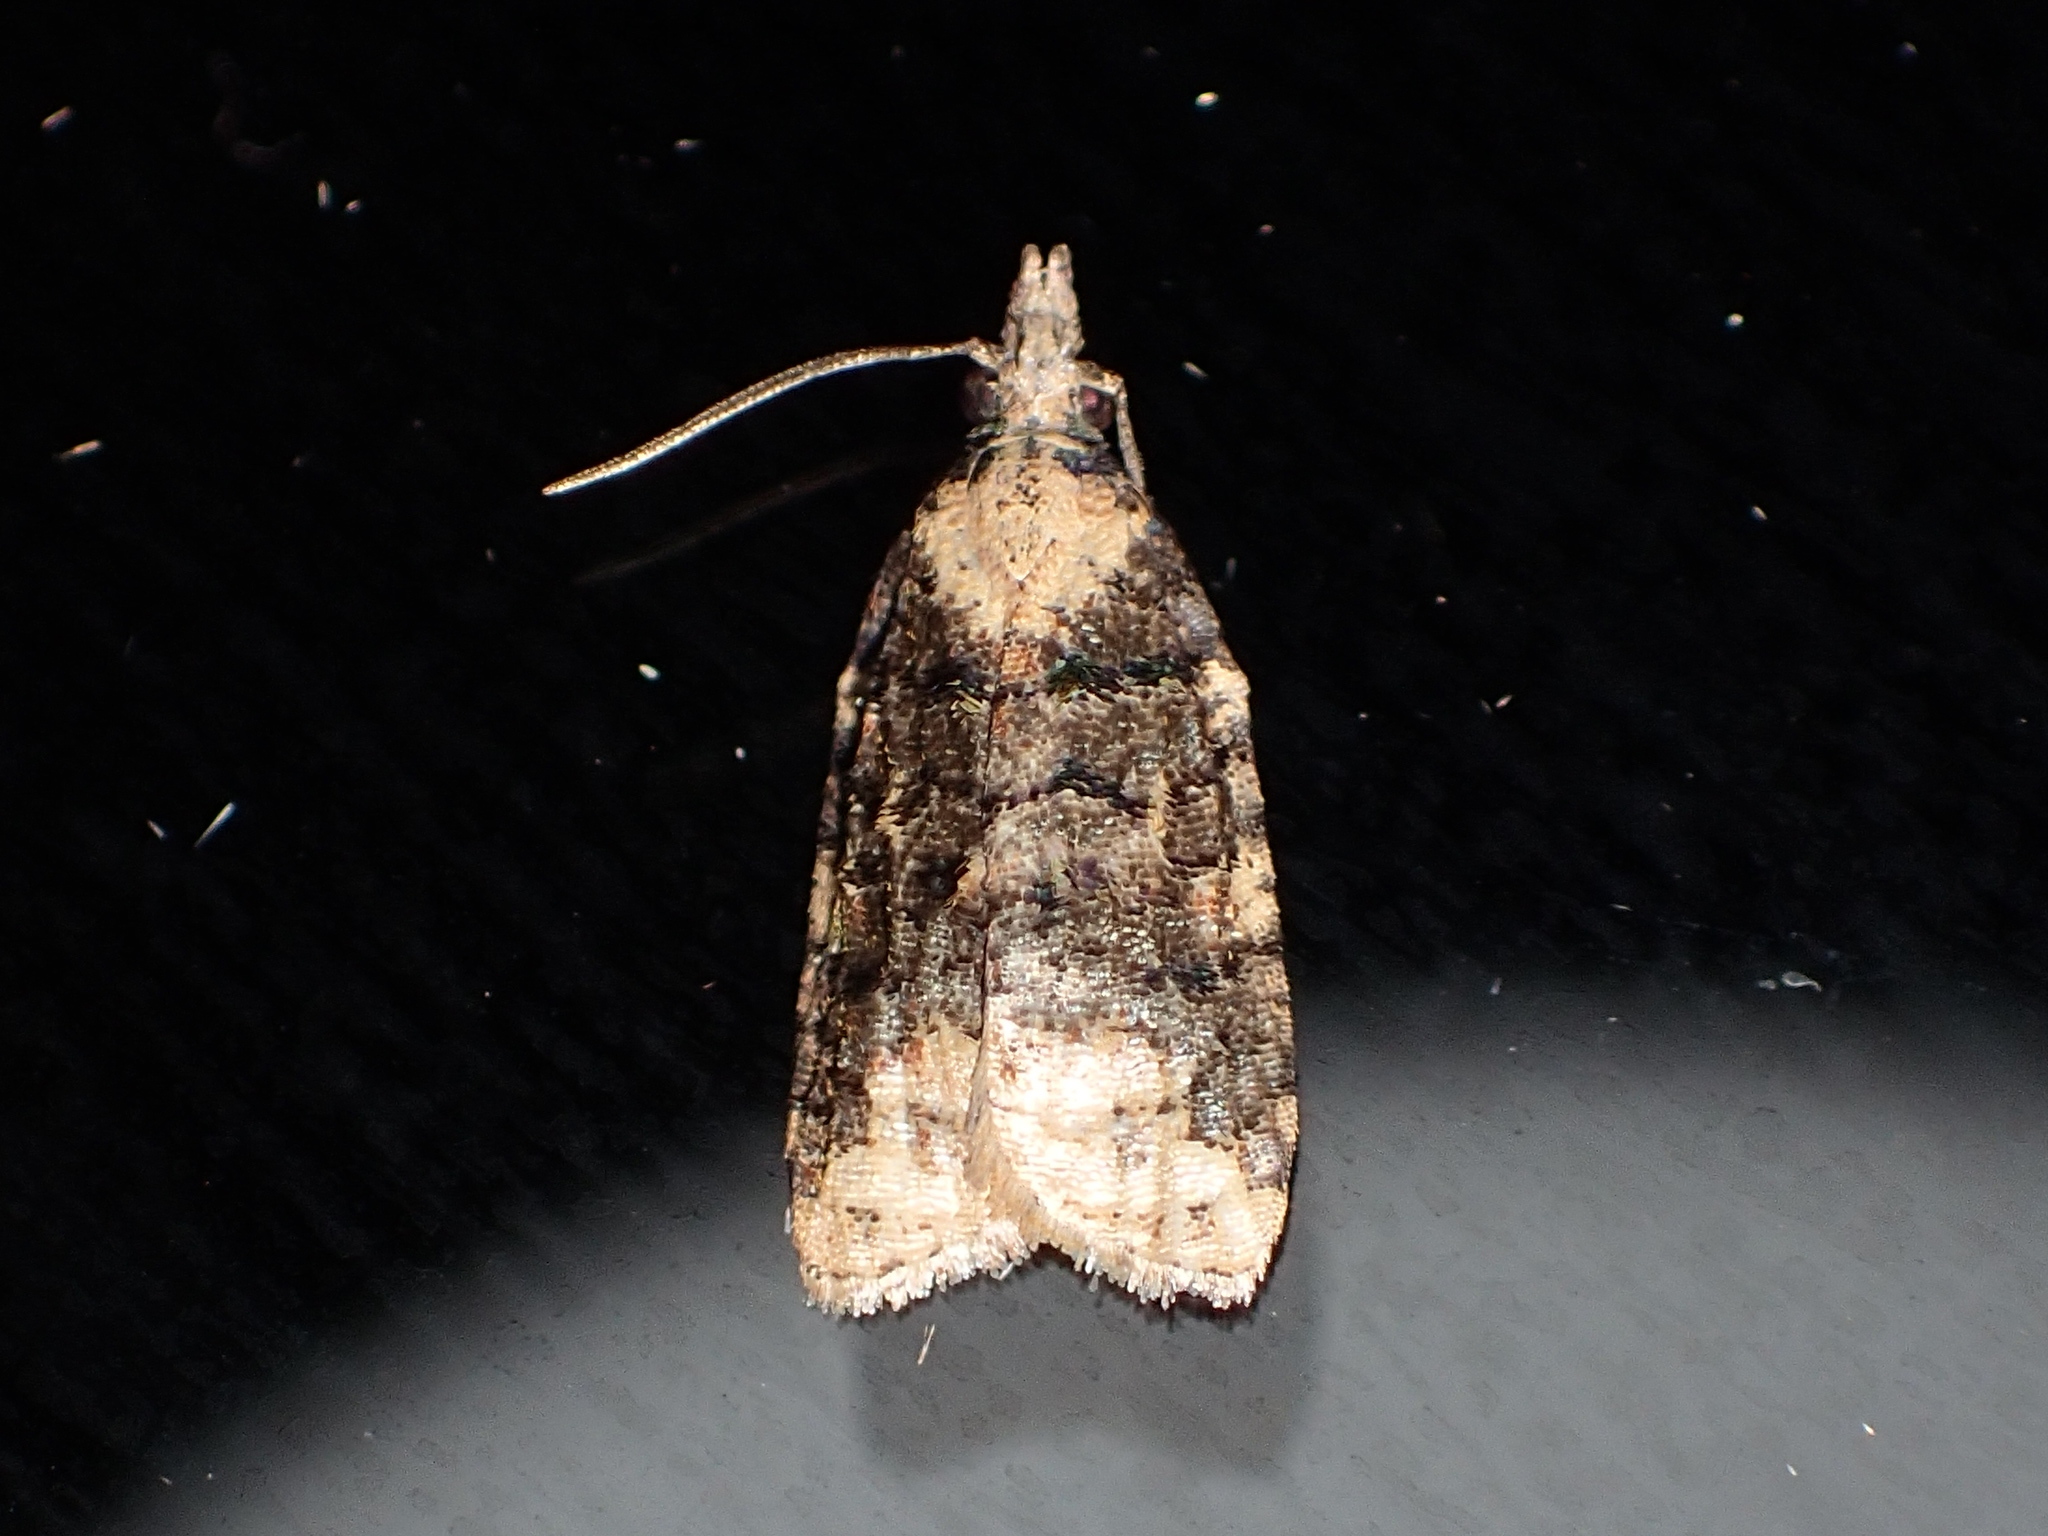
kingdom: Animalia
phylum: Arthropoda
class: Insecta
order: Lepidoptera
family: Tortricidae
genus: Platynota
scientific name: Platynota exasperatana
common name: Exasperating platynota moth
